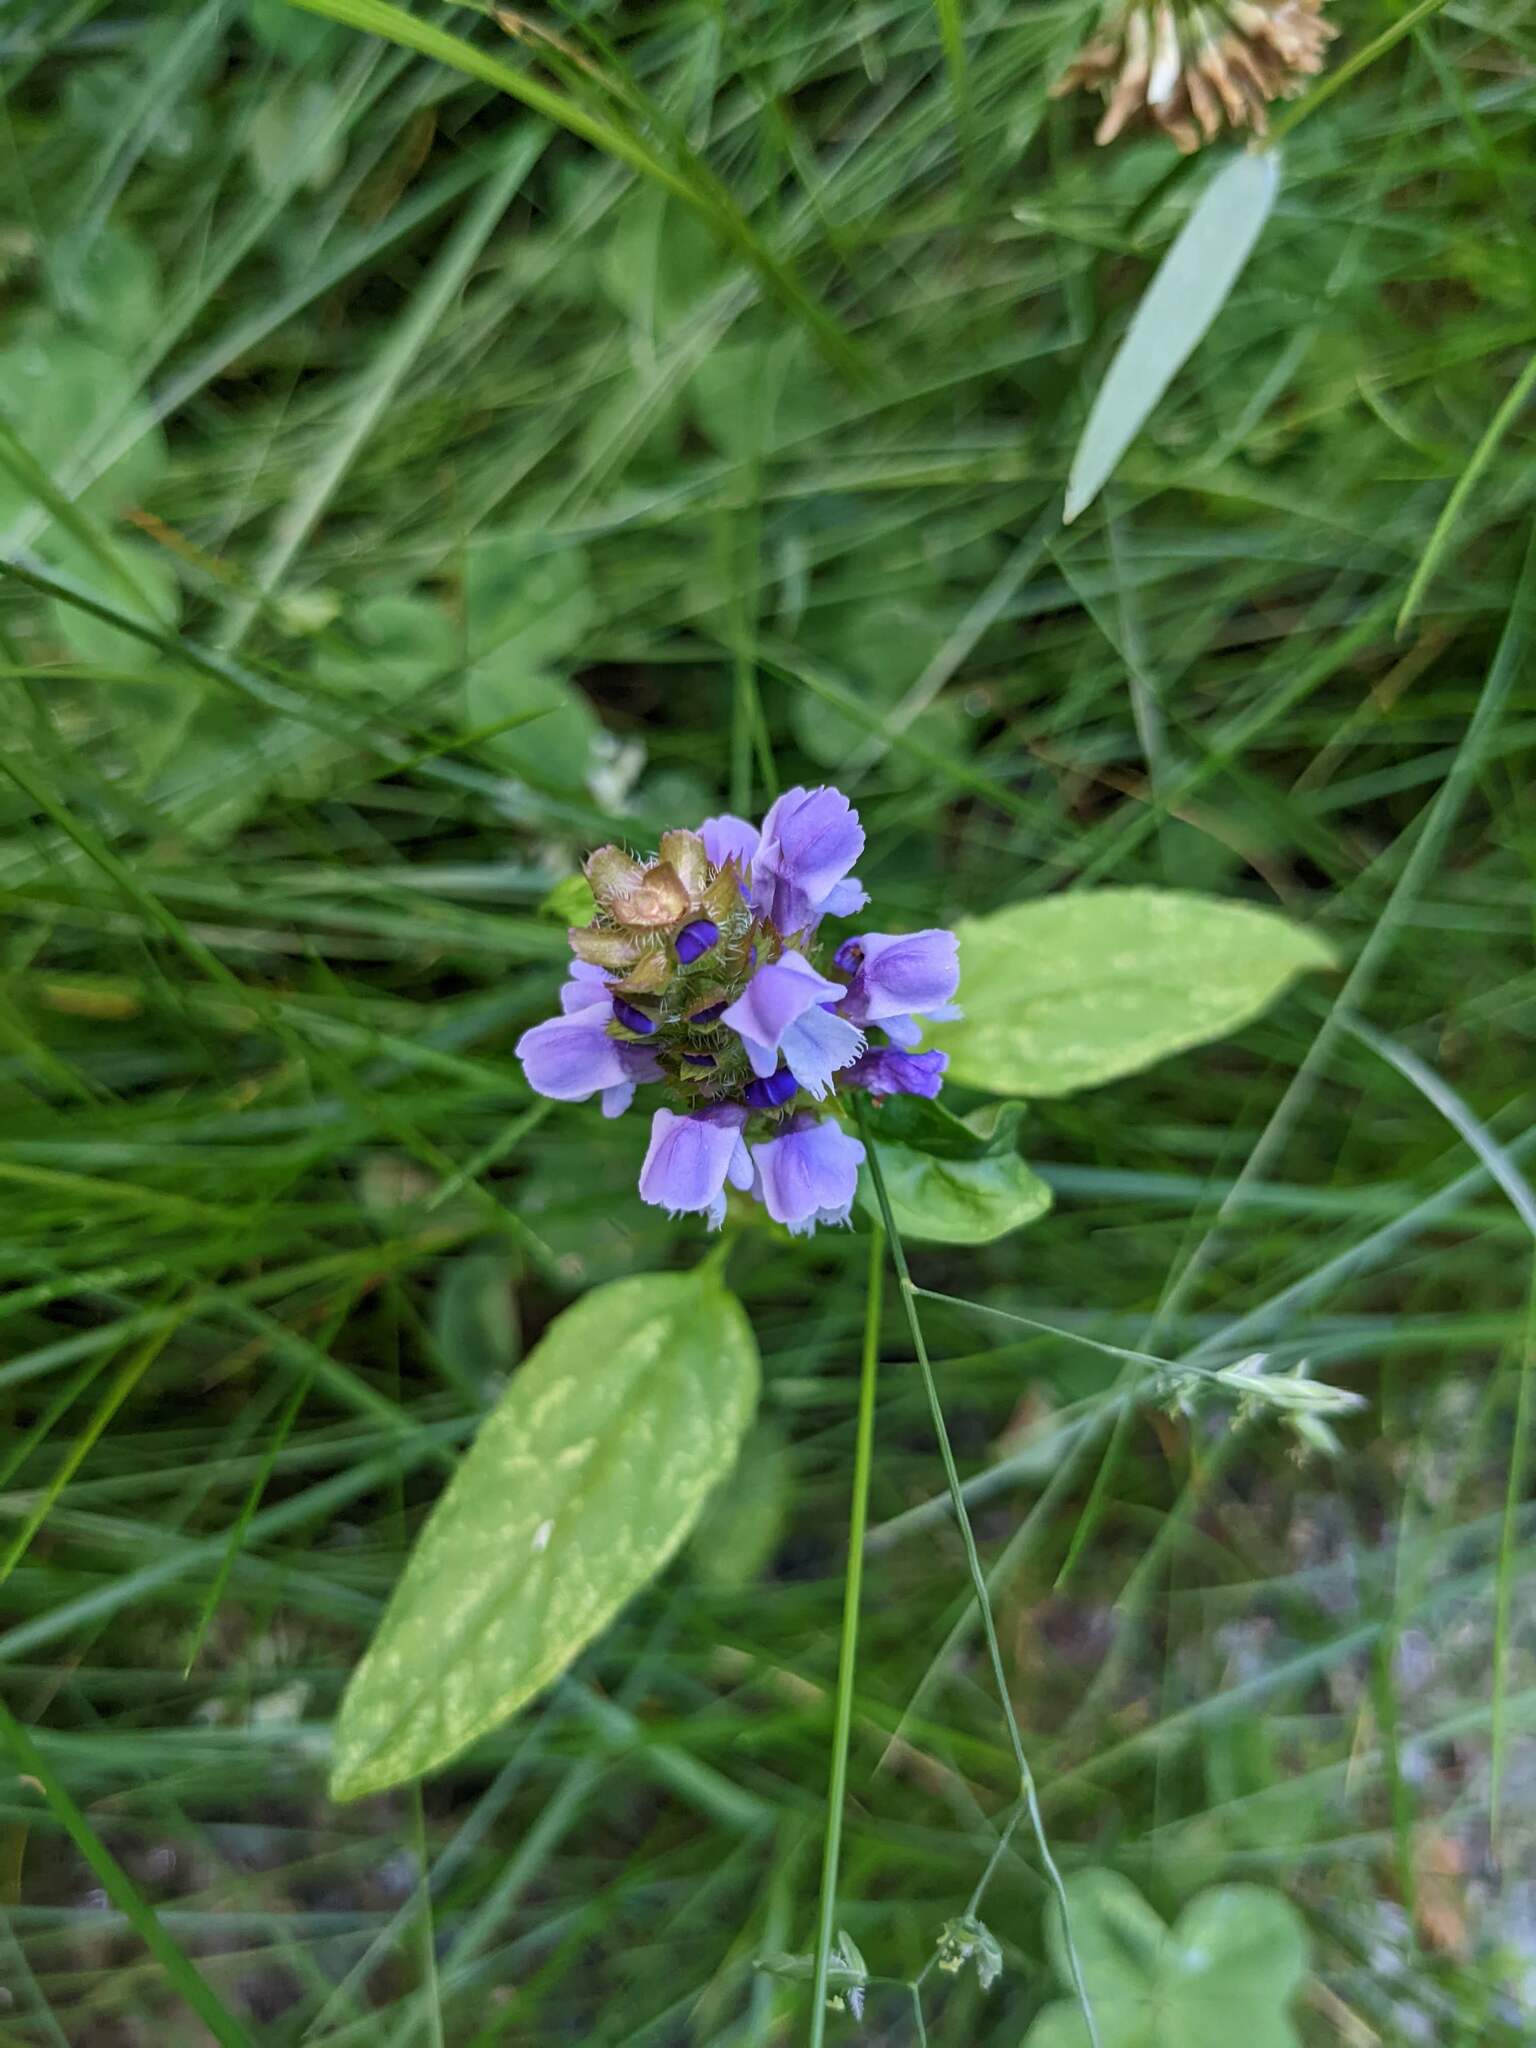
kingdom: Plantae
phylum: Tracheophyta
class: Magnoliopsida
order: Lamiales
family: Lamiaceae
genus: Prunella
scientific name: Prunella vulgaris
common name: Heal-all
